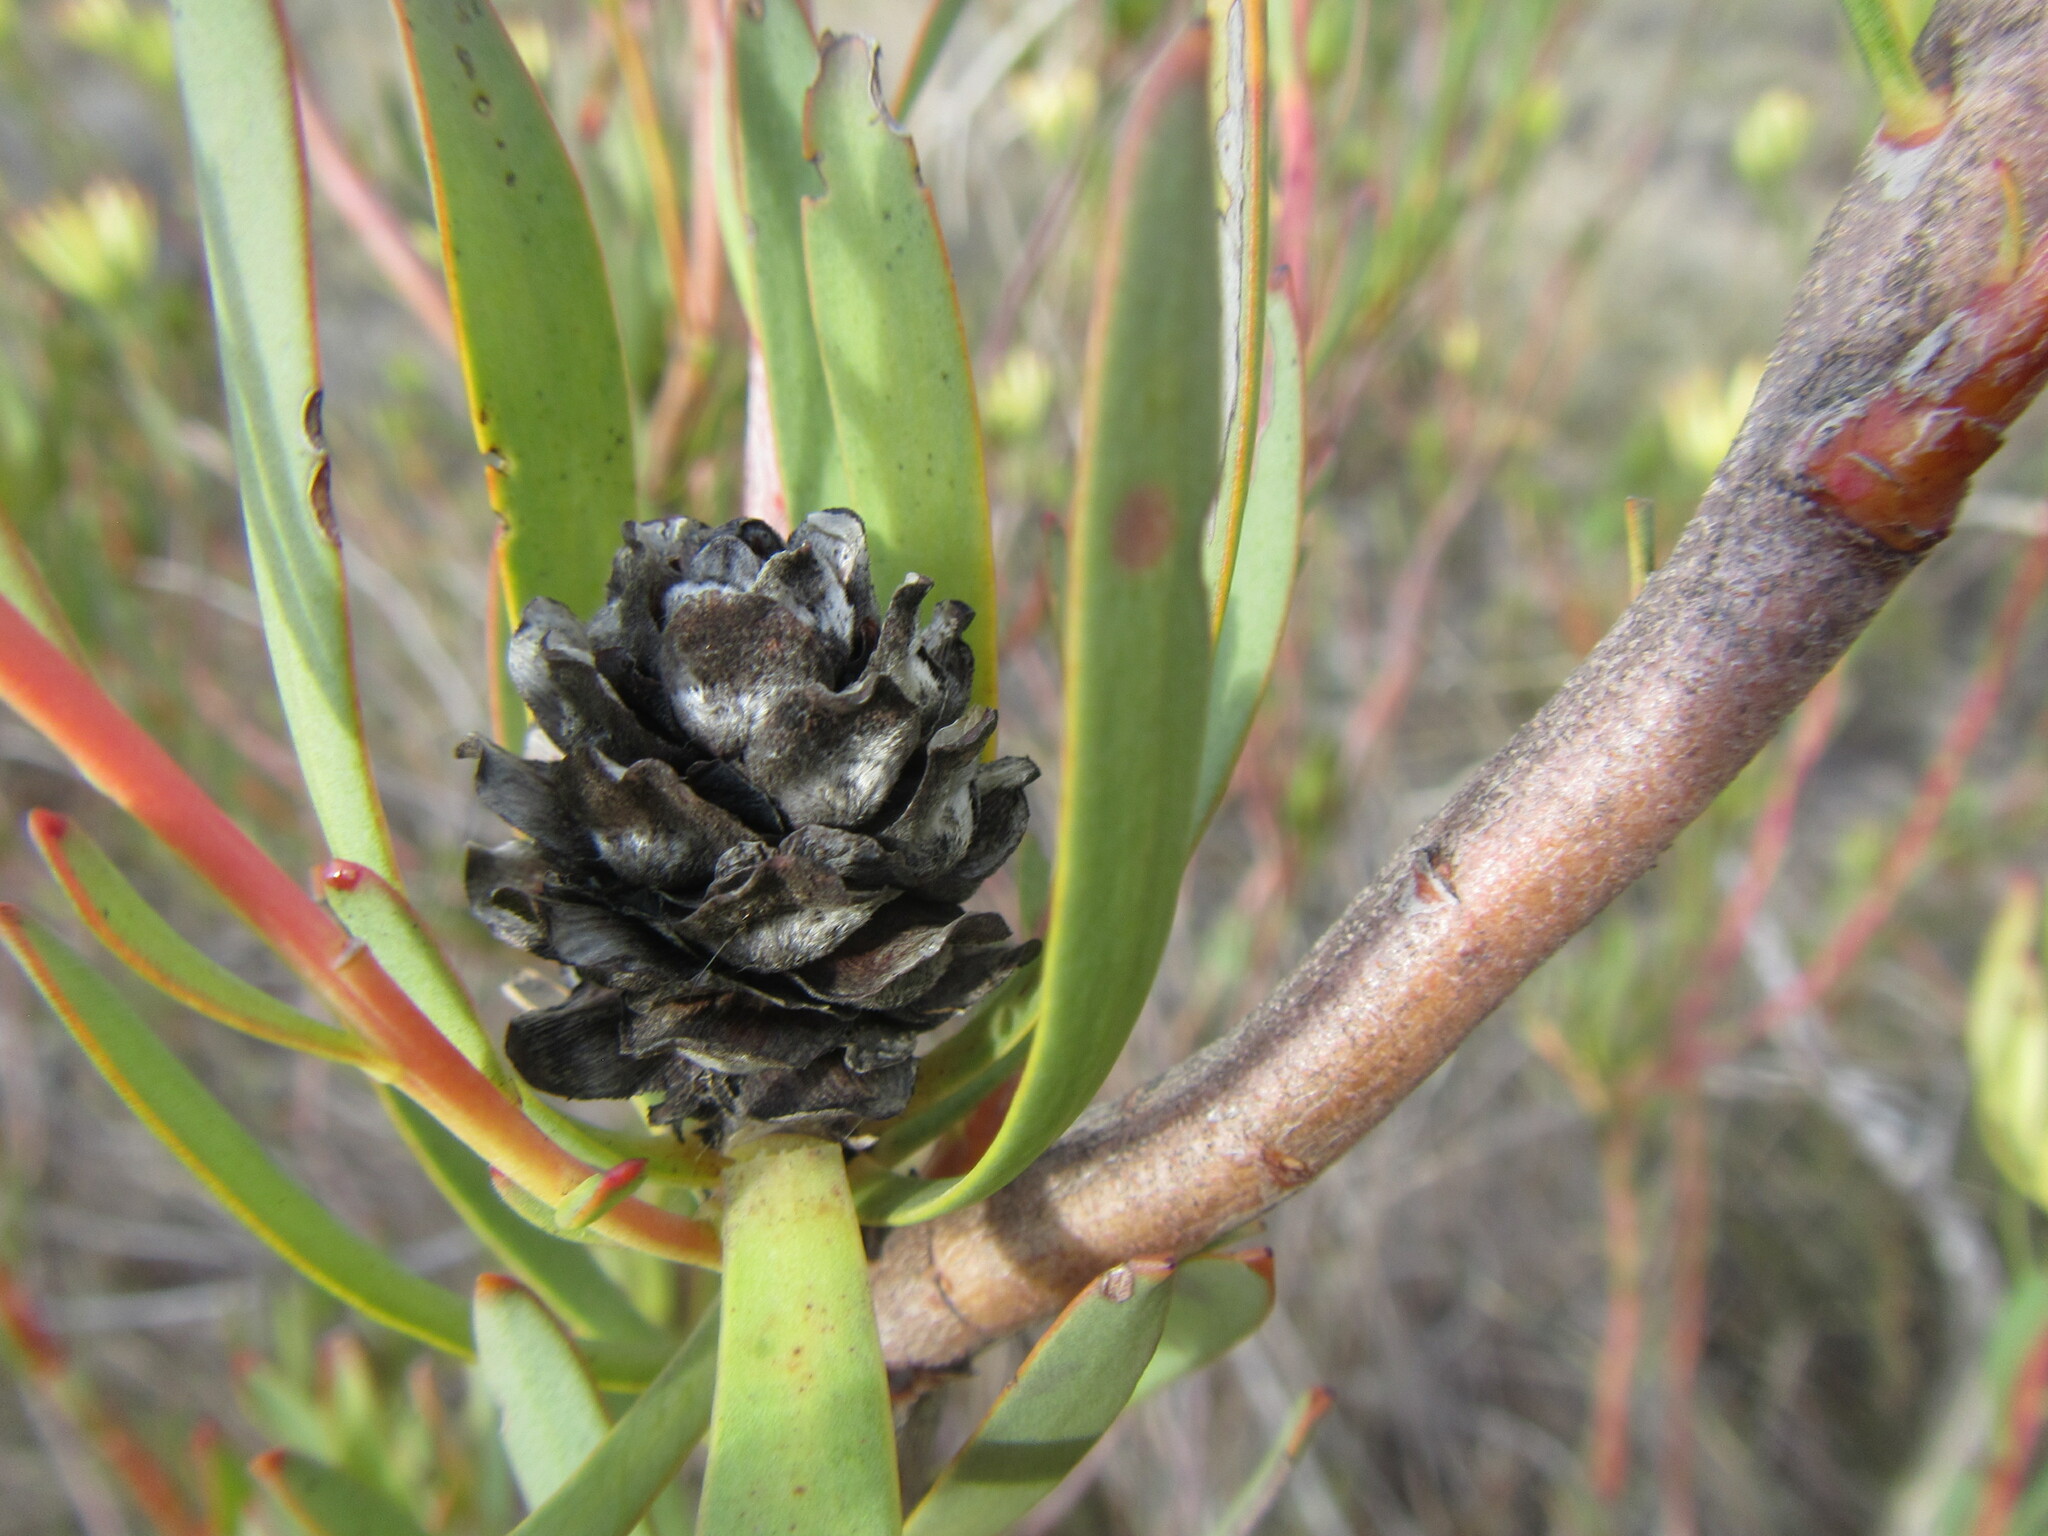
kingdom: Plantae
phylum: Tracheophyta
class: Magnoliopsida
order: Proteales
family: Proteaceae
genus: Leucadendron
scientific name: Leucadendron flexuosum
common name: Worcester conebush
